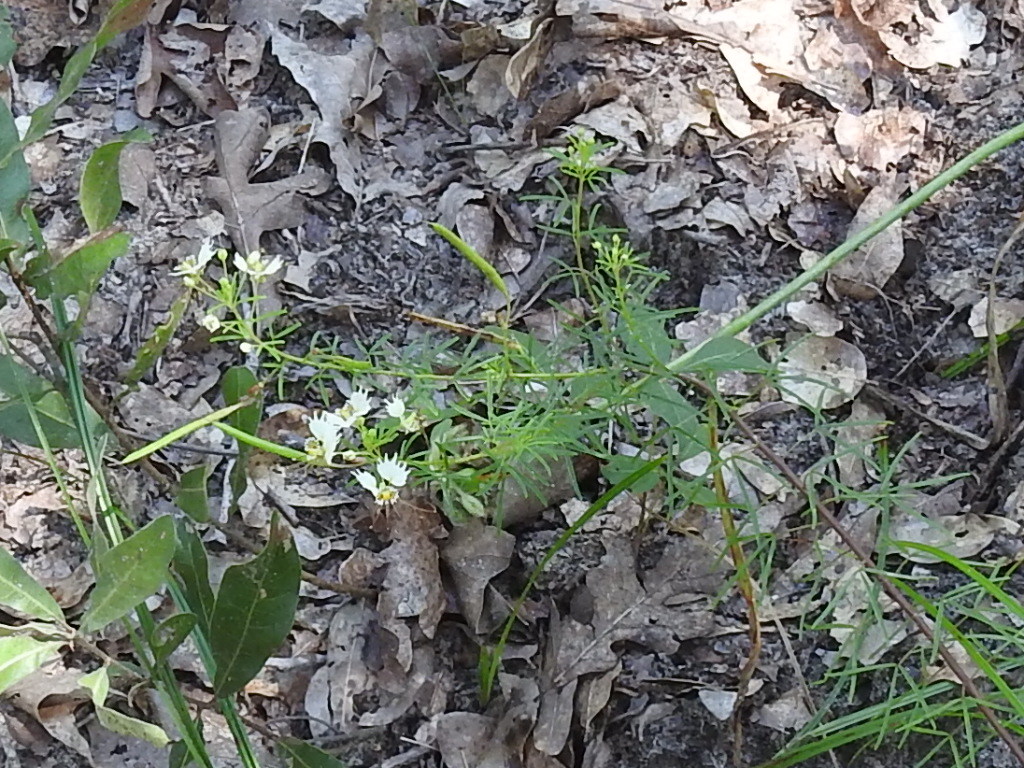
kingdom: Plantae
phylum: Tracheophyta
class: Magnoliopsida
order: Brassicales
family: Cleomaceae
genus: Polanisia
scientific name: Polanisia erosa
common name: Large clammyweed
